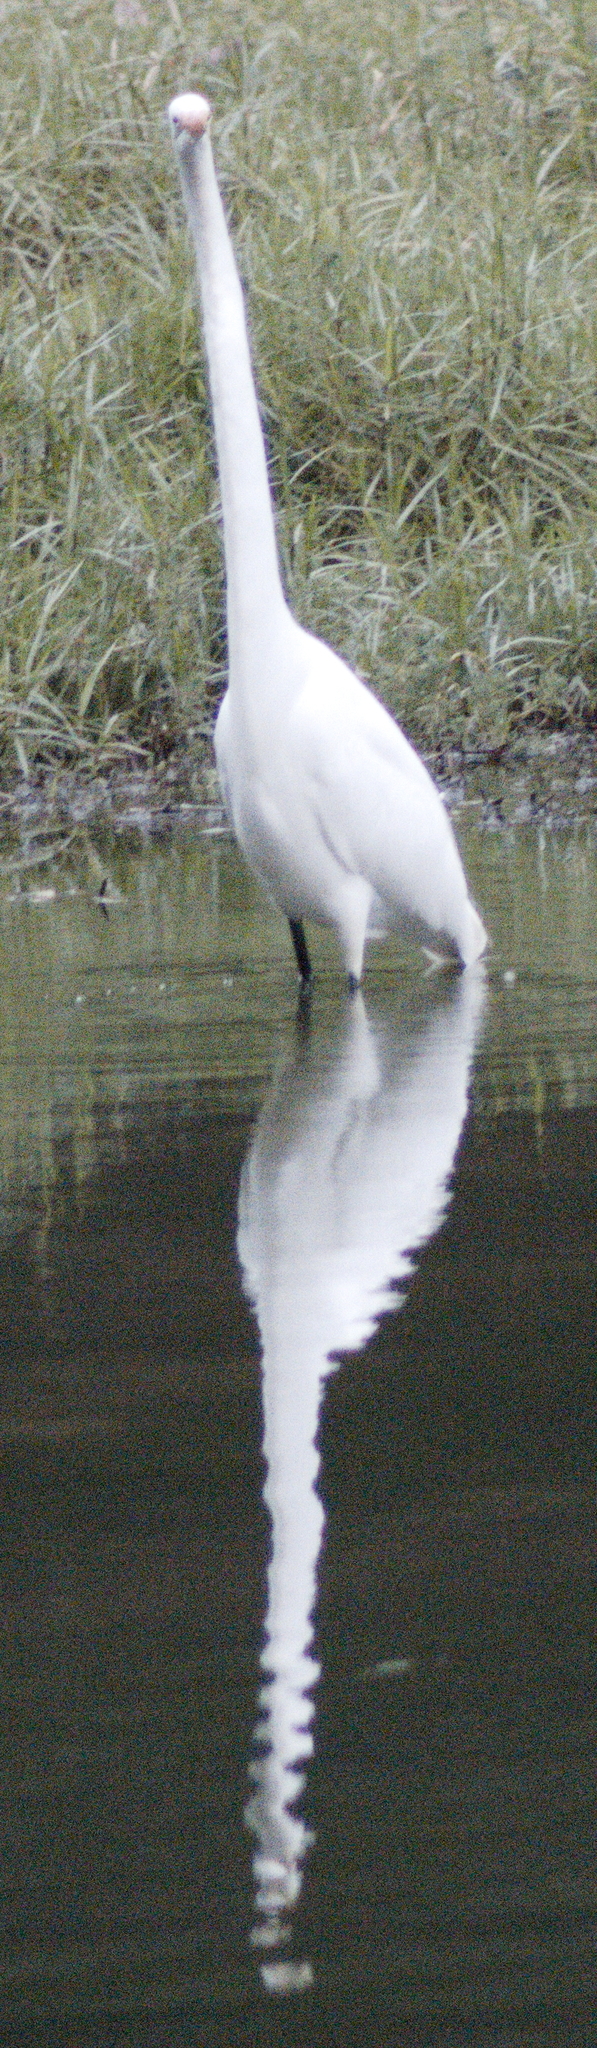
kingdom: Animalia
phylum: Chordata
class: Aves
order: Pelecaniformes
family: Ardeidae
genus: Ardea
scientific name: Ardea alba
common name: Great egret
